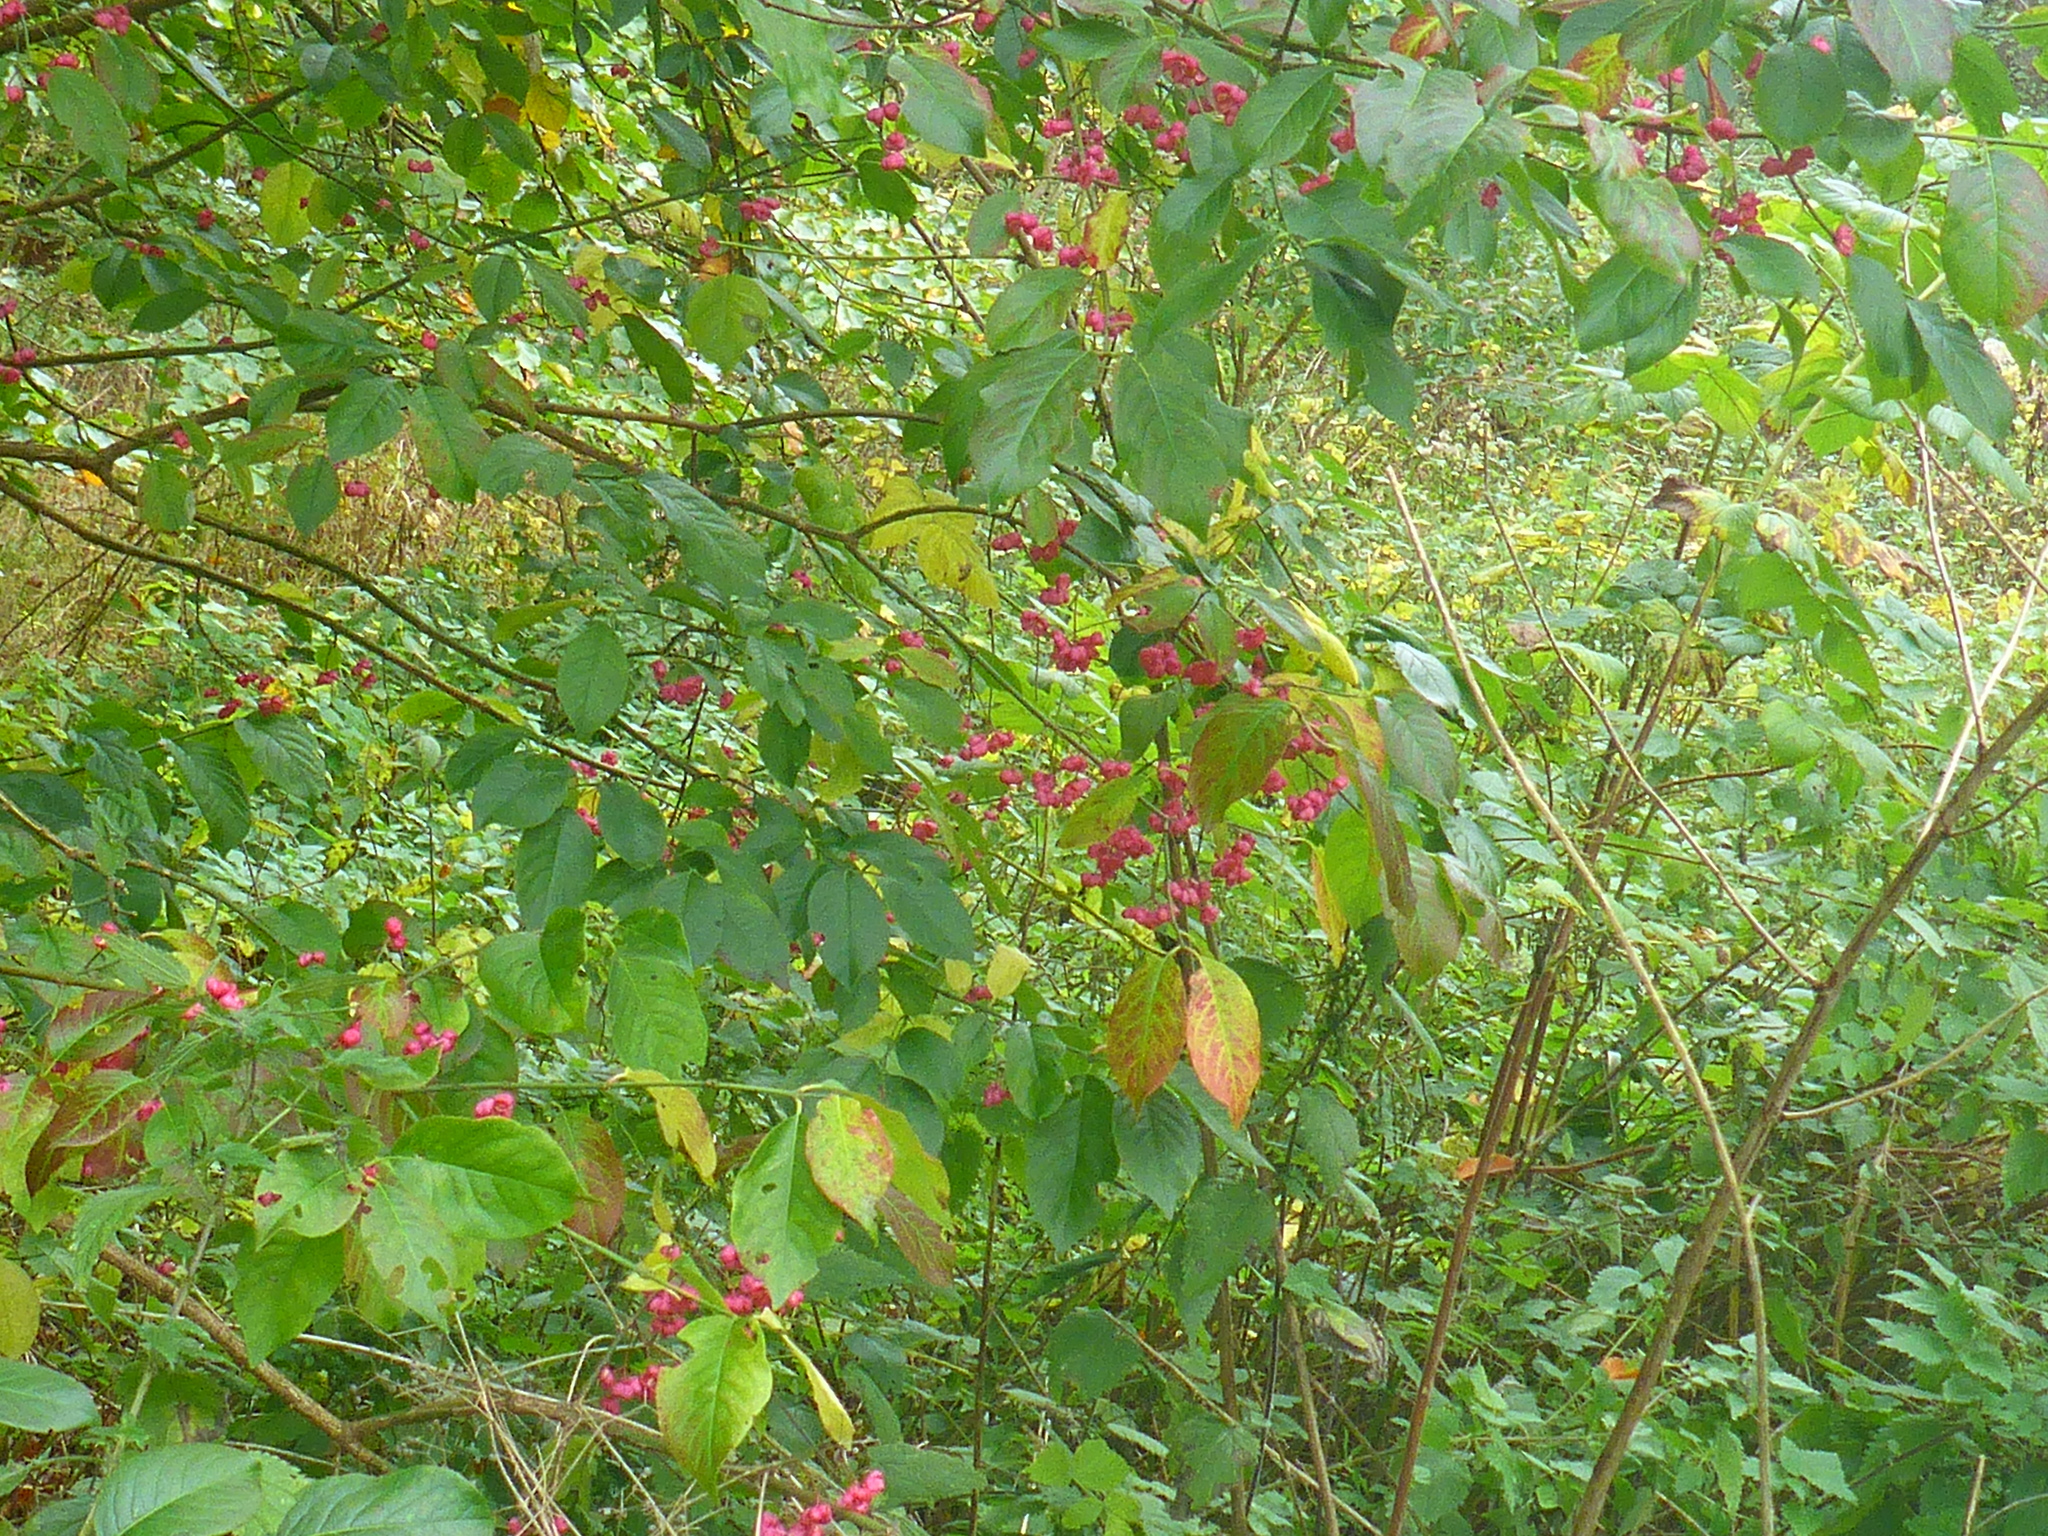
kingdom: Plantae
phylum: Tracheophyta
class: Magnoliopsida
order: Celastrales
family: Celastraceae
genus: Euonymus
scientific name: Euonymus europaeus
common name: Spindle
